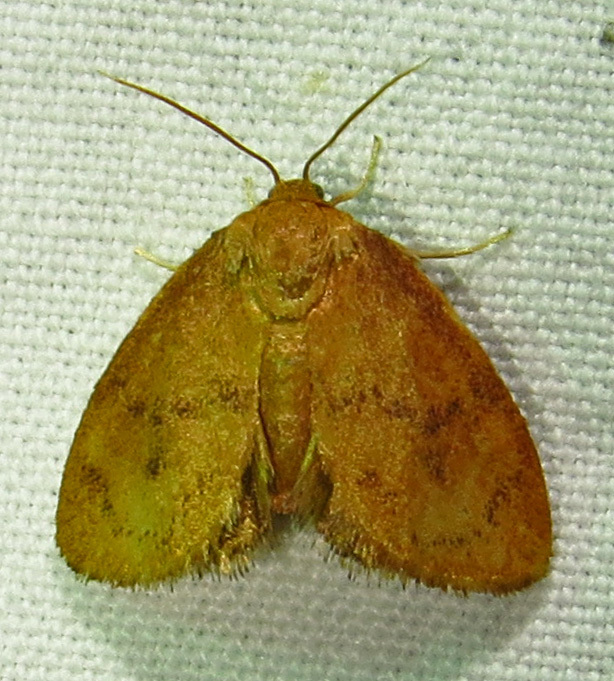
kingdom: Animalia
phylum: Arthropoda
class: Insecta
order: Lepidoptera
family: Limacodidae
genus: Heterogenea
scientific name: Heterogenea shurtleffi
